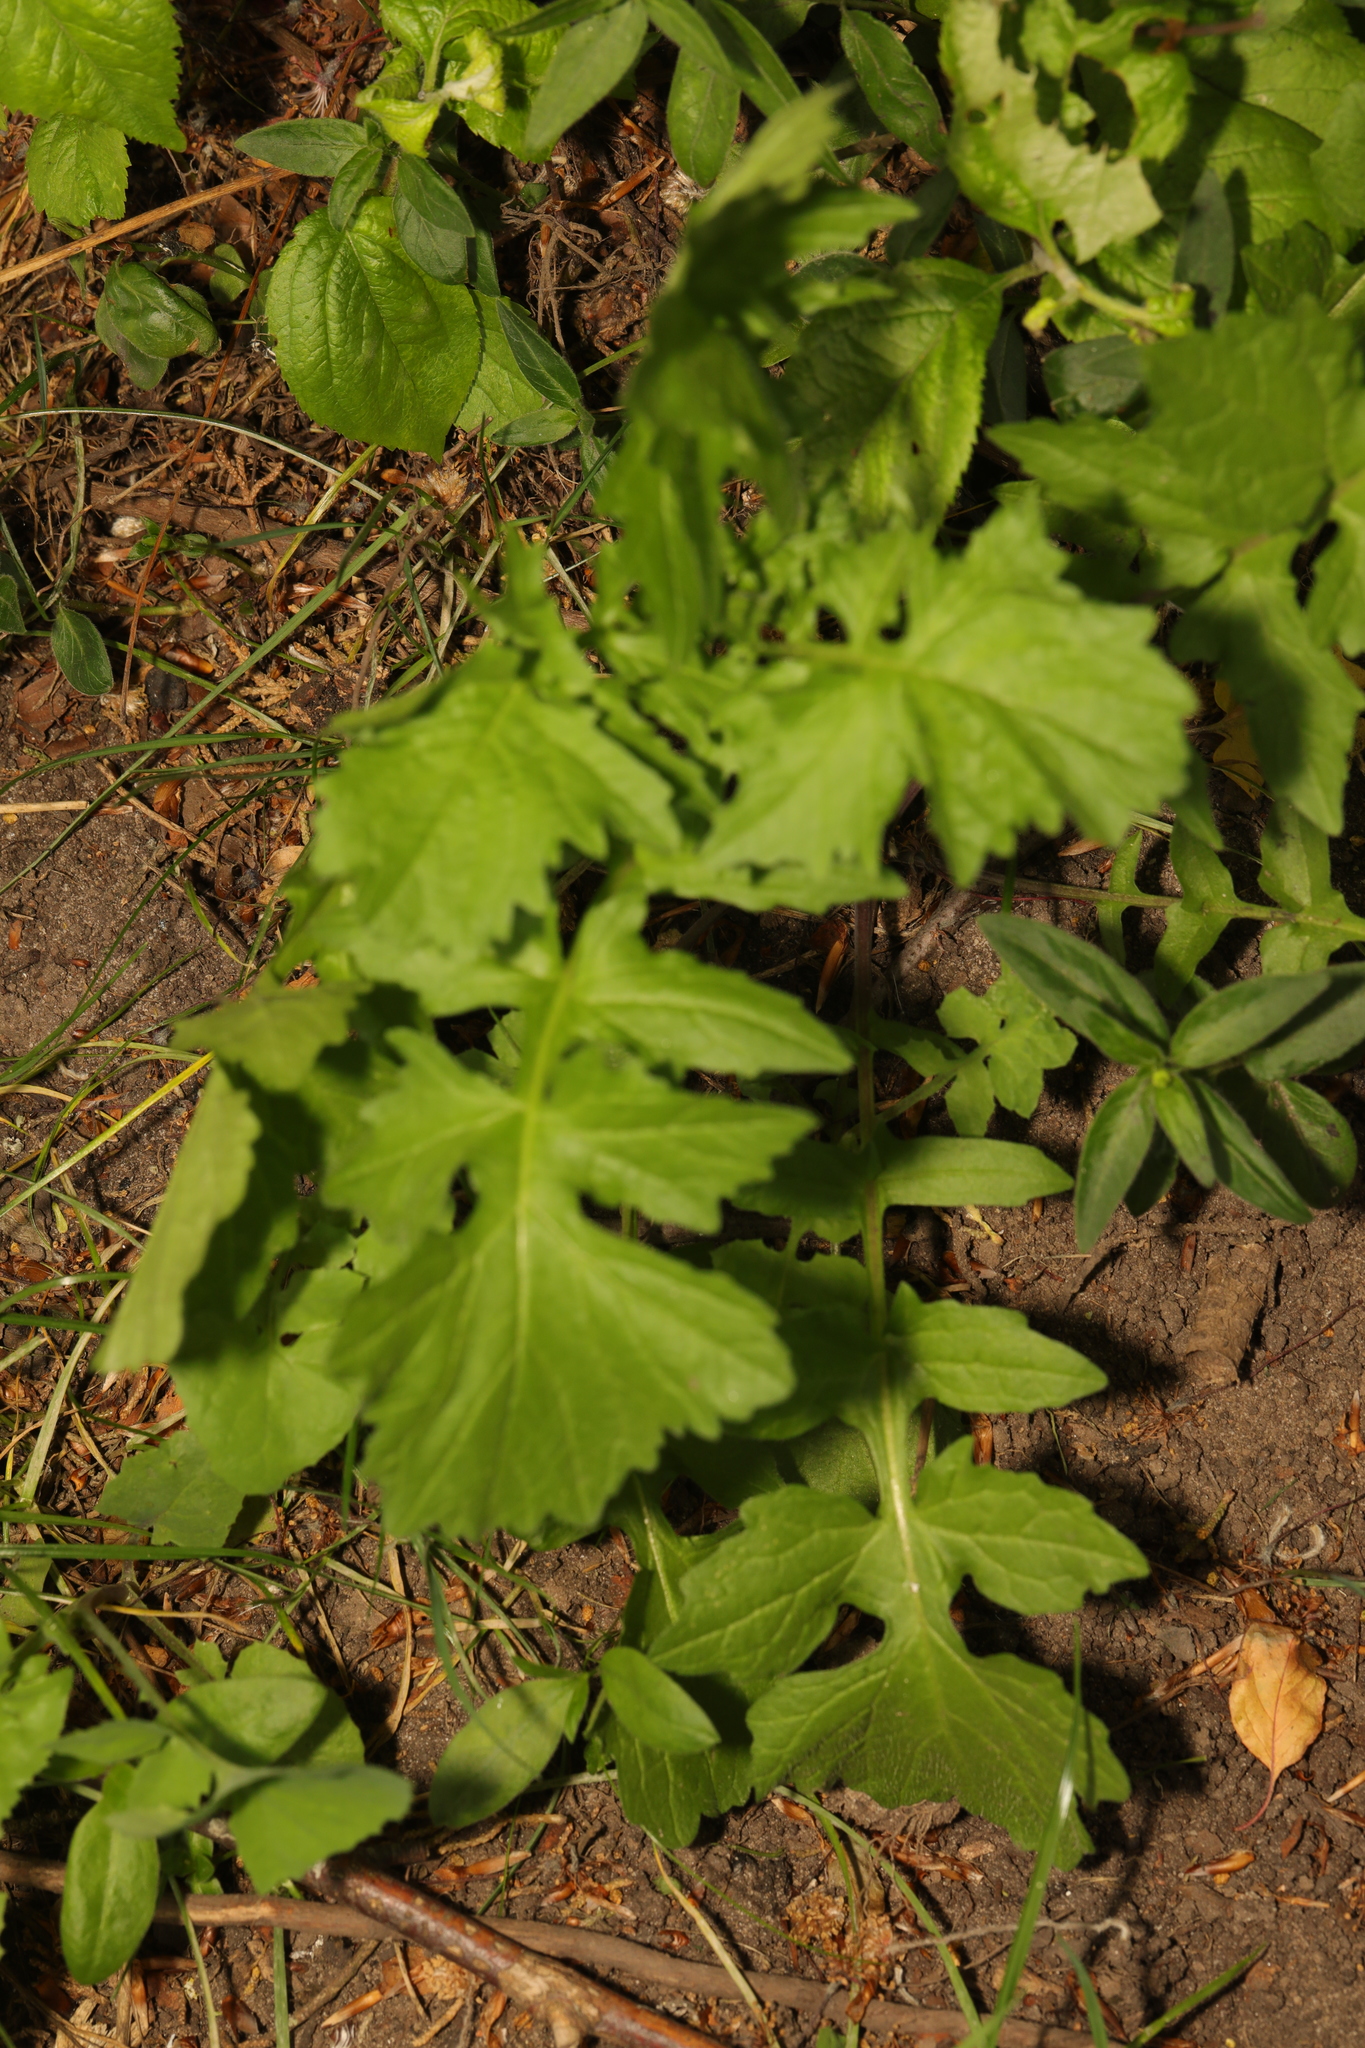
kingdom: Plantae
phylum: Tracheophyta
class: Magnoliopsida
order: Brassicales
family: Brassicaceae
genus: Sisymbrium
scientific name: Sisymbrium officinale
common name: Hedge mustard
